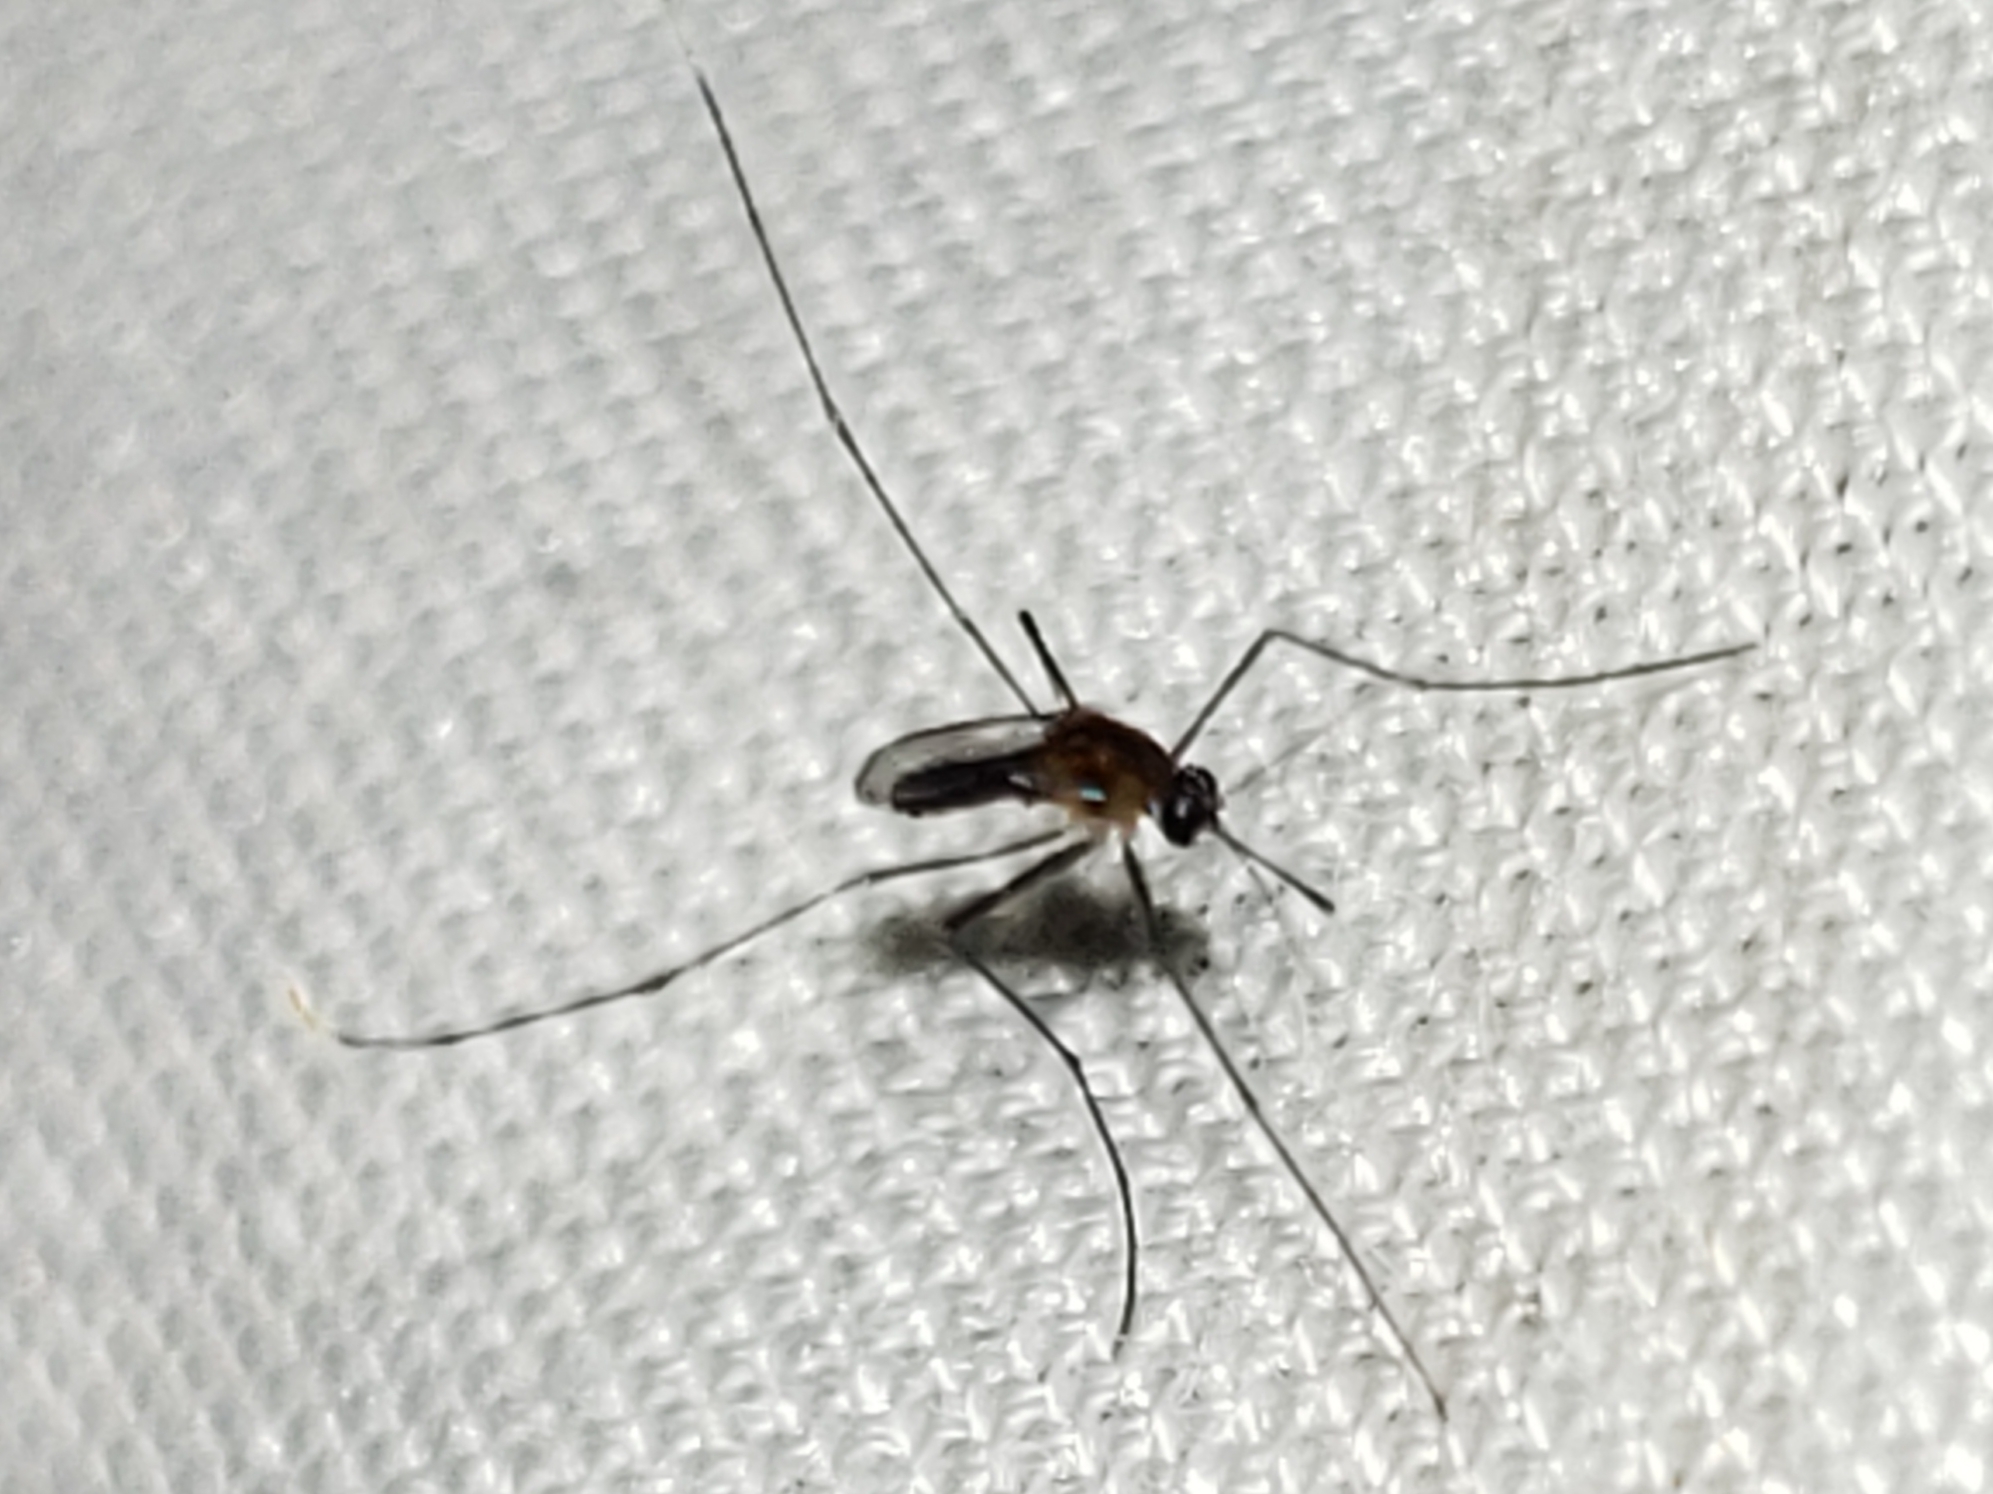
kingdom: Animalia
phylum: Arthropoda
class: Insecta
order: Diptera
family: Culicidae
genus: Uranotaenia
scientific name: Uranotaenia lowii
